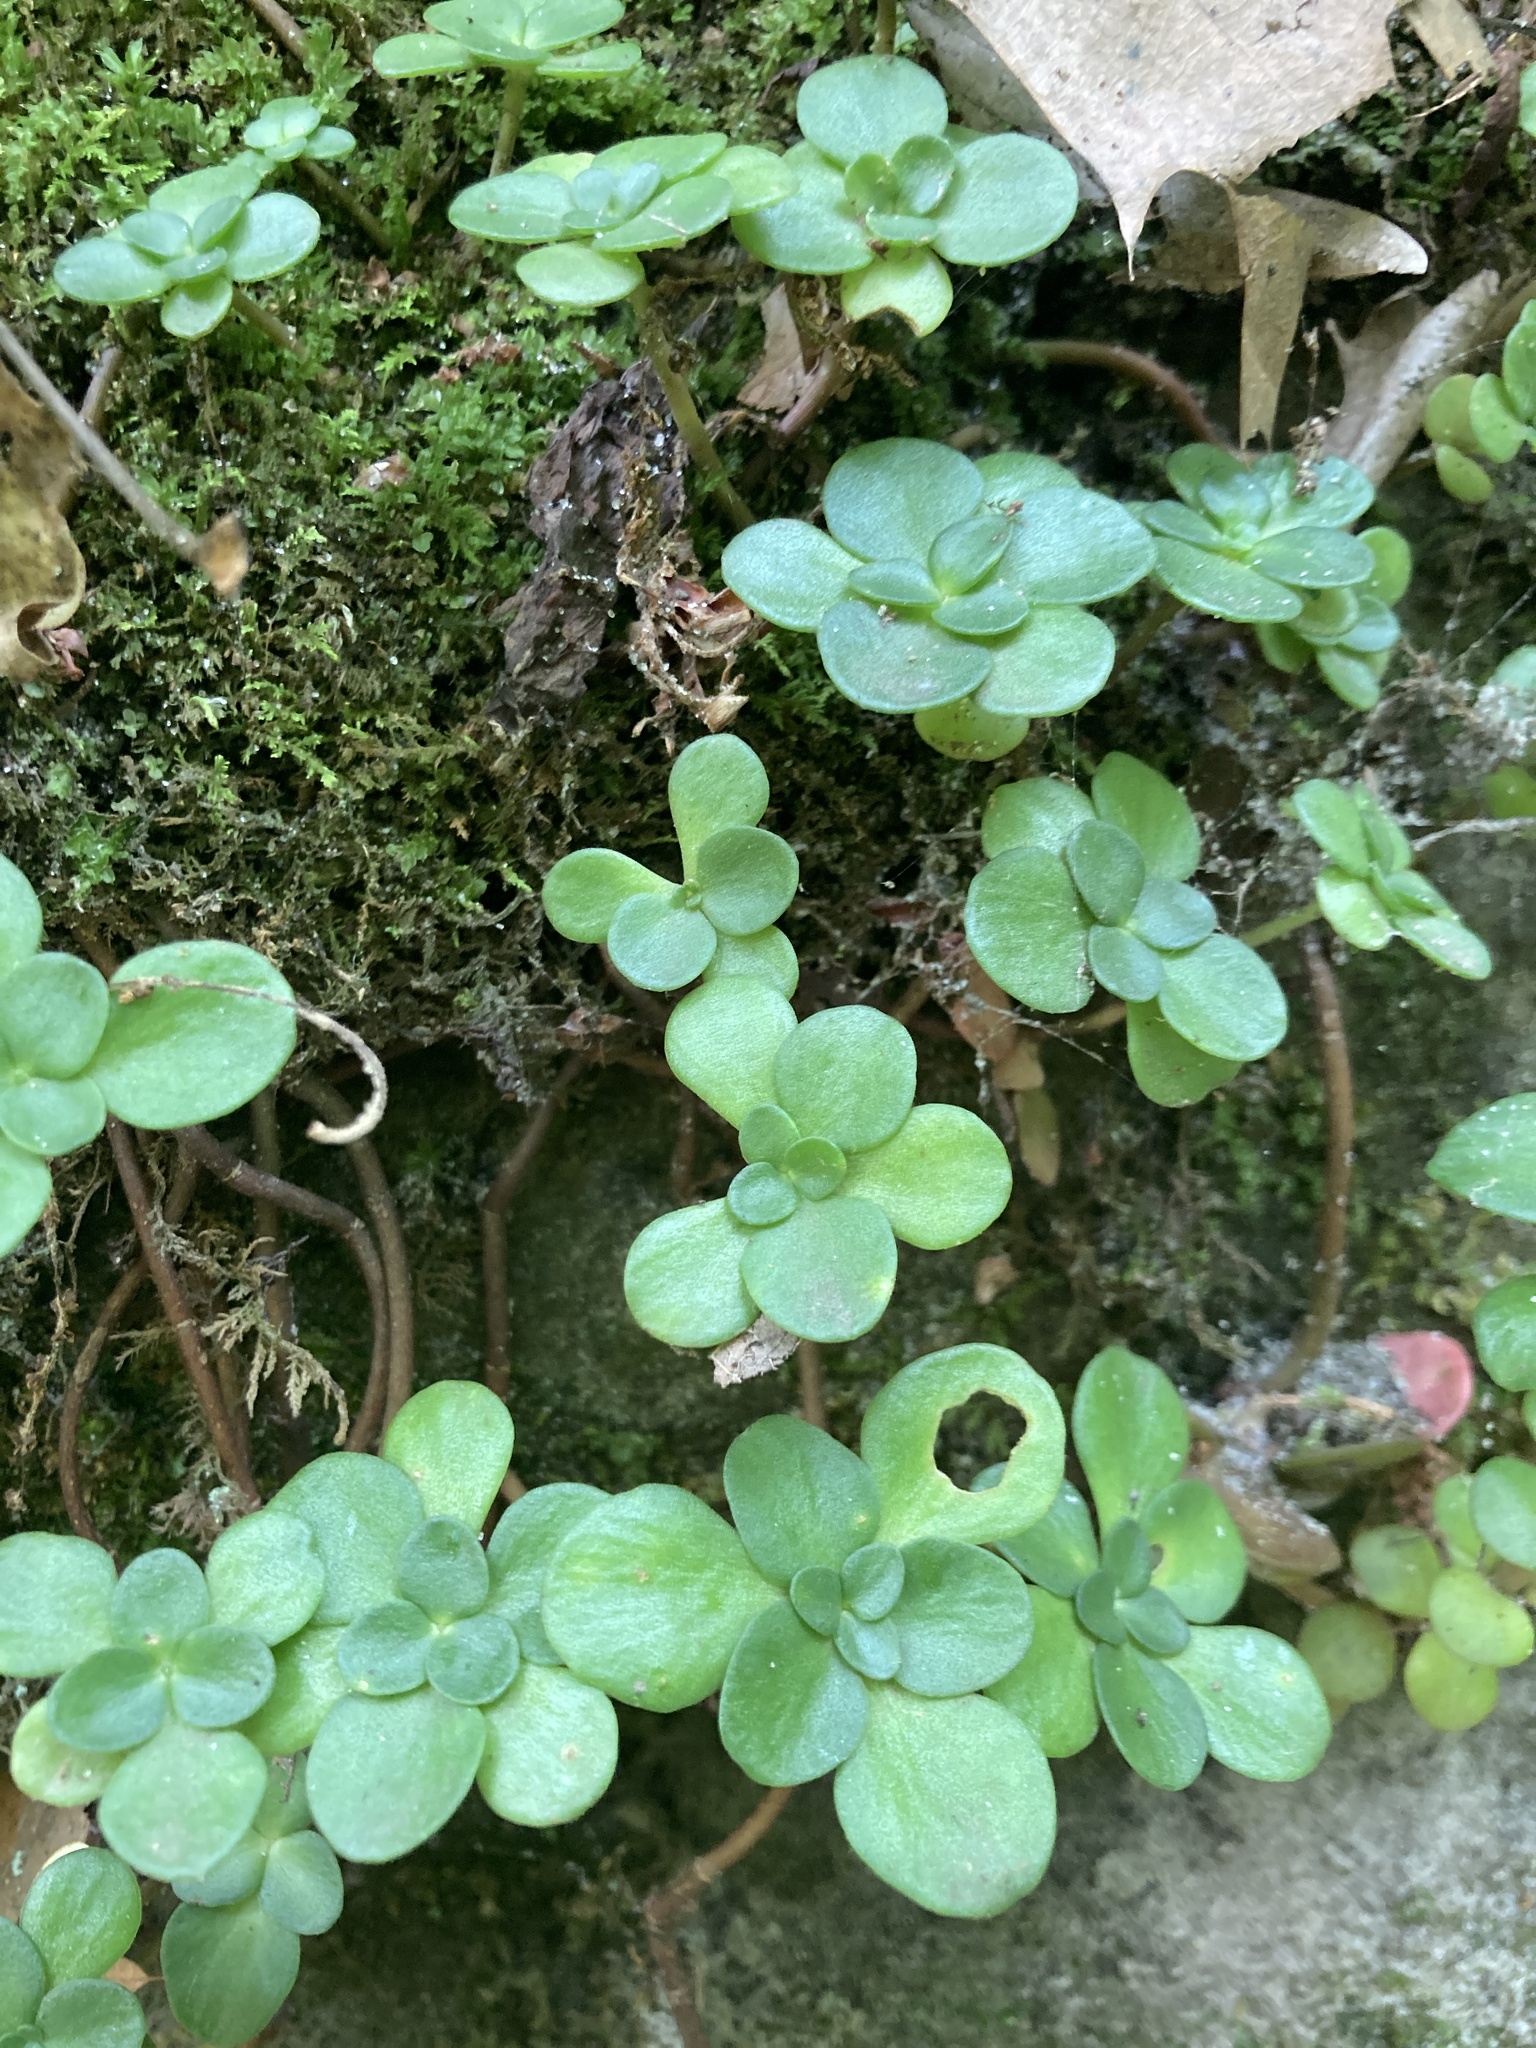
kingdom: Plantae
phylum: Tracheophyta
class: Magnoliopsida
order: Saxifragales
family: Crassulaceae
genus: Sedum
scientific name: Sedum ternatum
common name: Wild stonecrop
